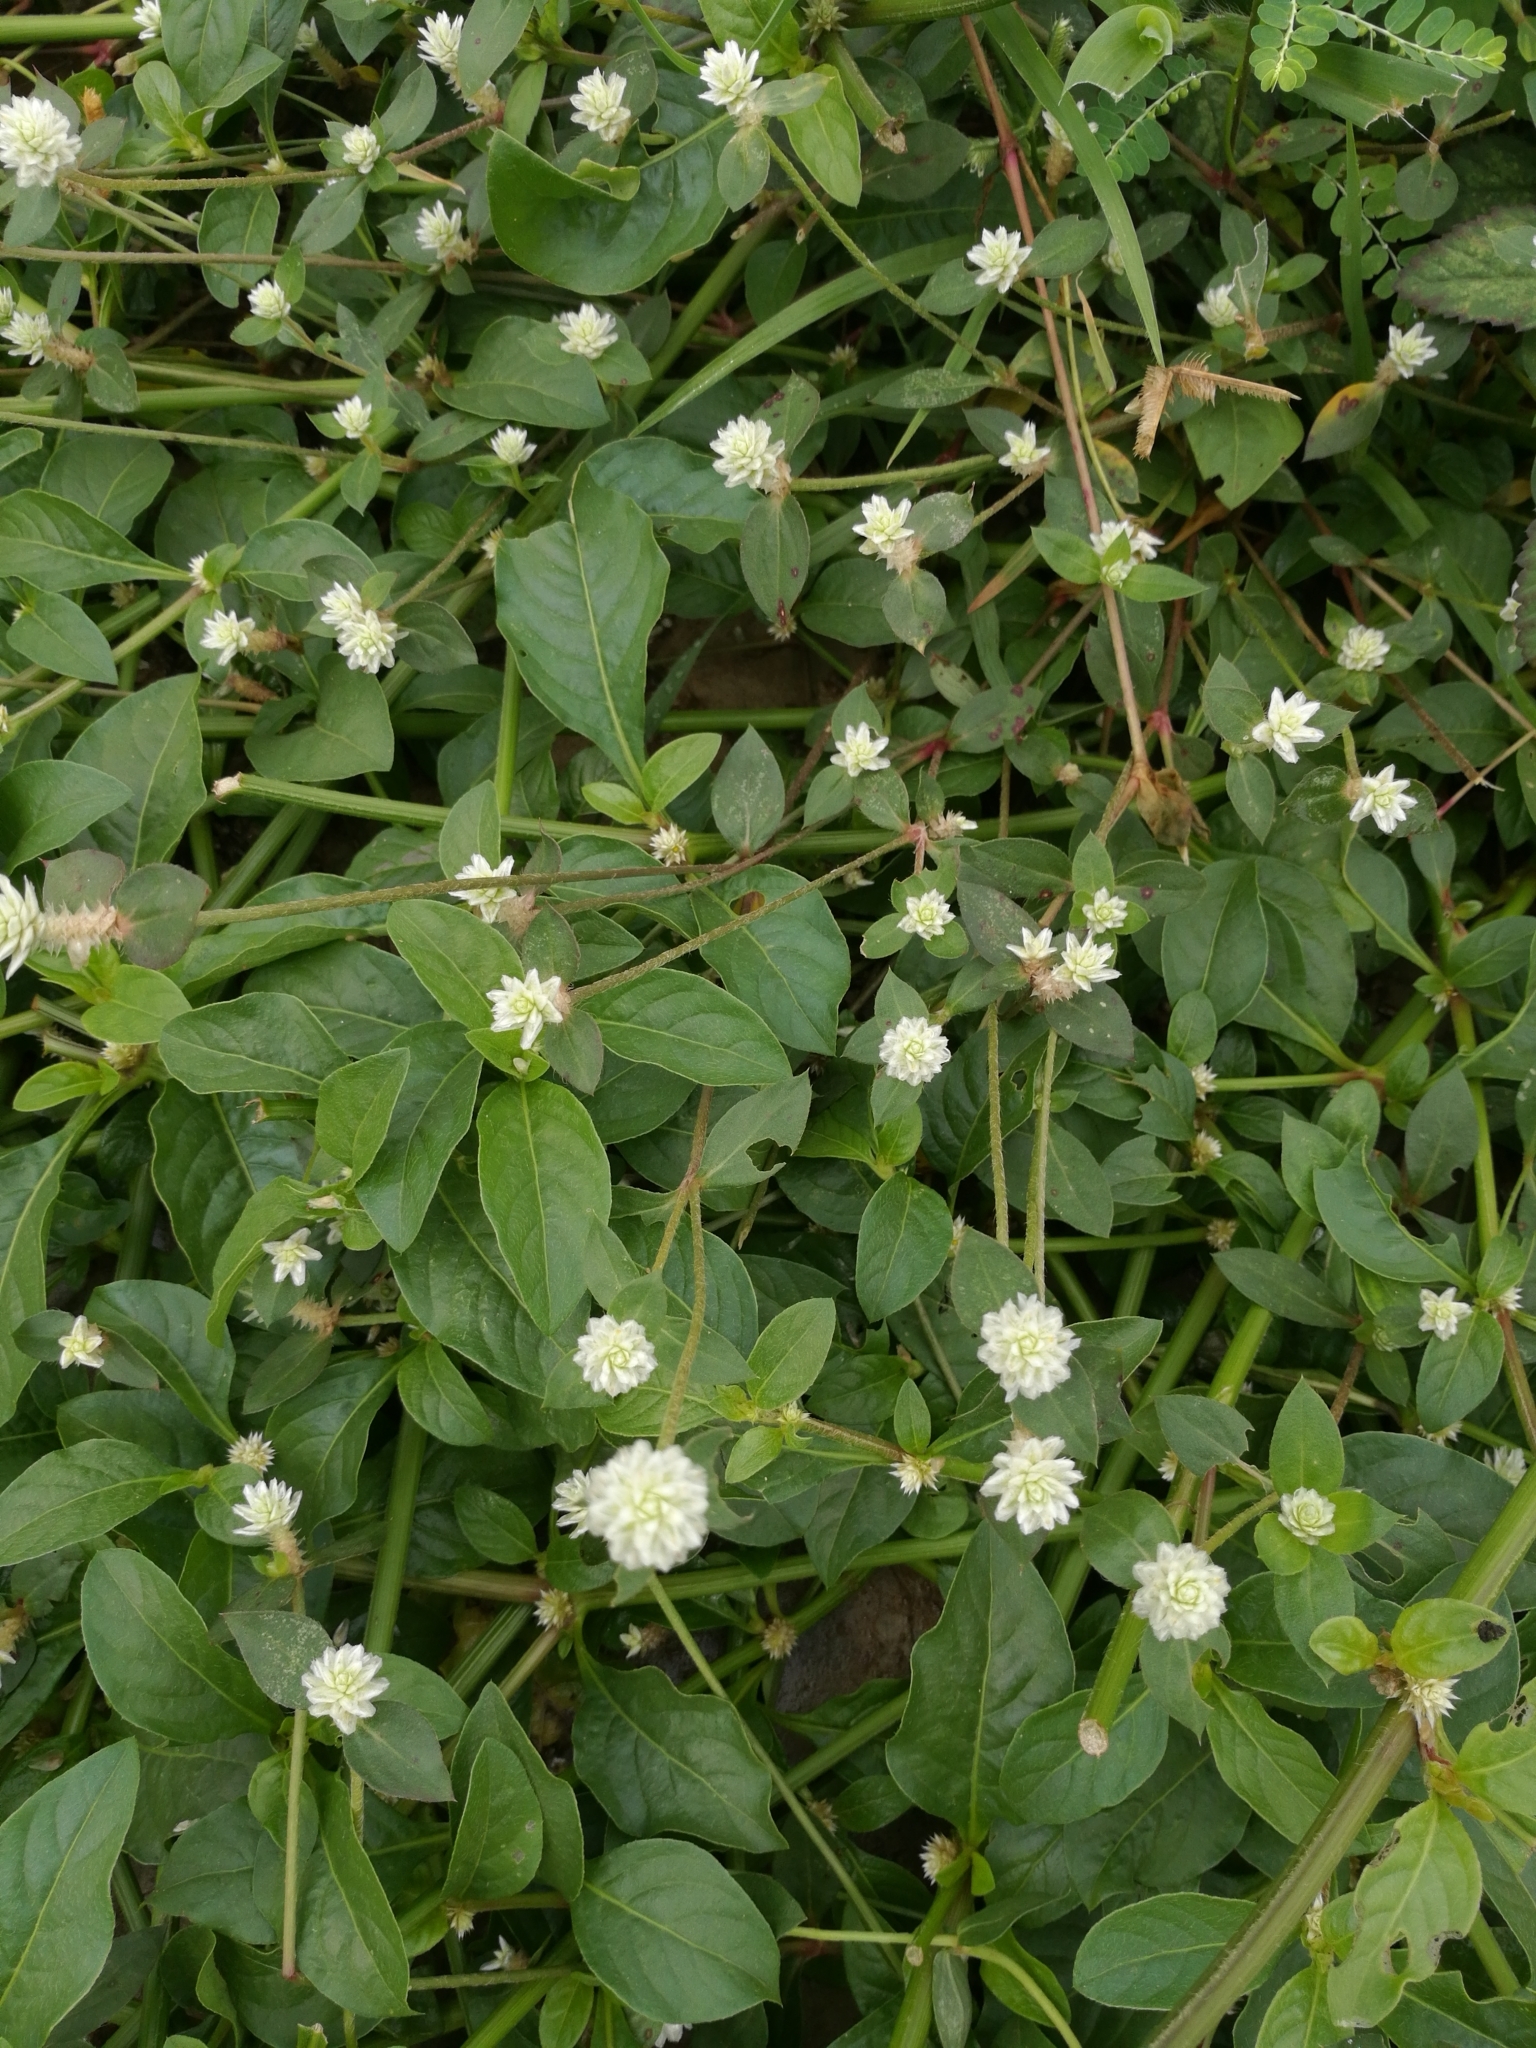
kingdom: Plantae
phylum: Tracheophyta
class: Magnoliopsida
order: Caryophyllales
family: Amaranthaceae
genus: Gomphrena
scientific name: Gomphrena celosioides
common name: Gomphrena-weed
